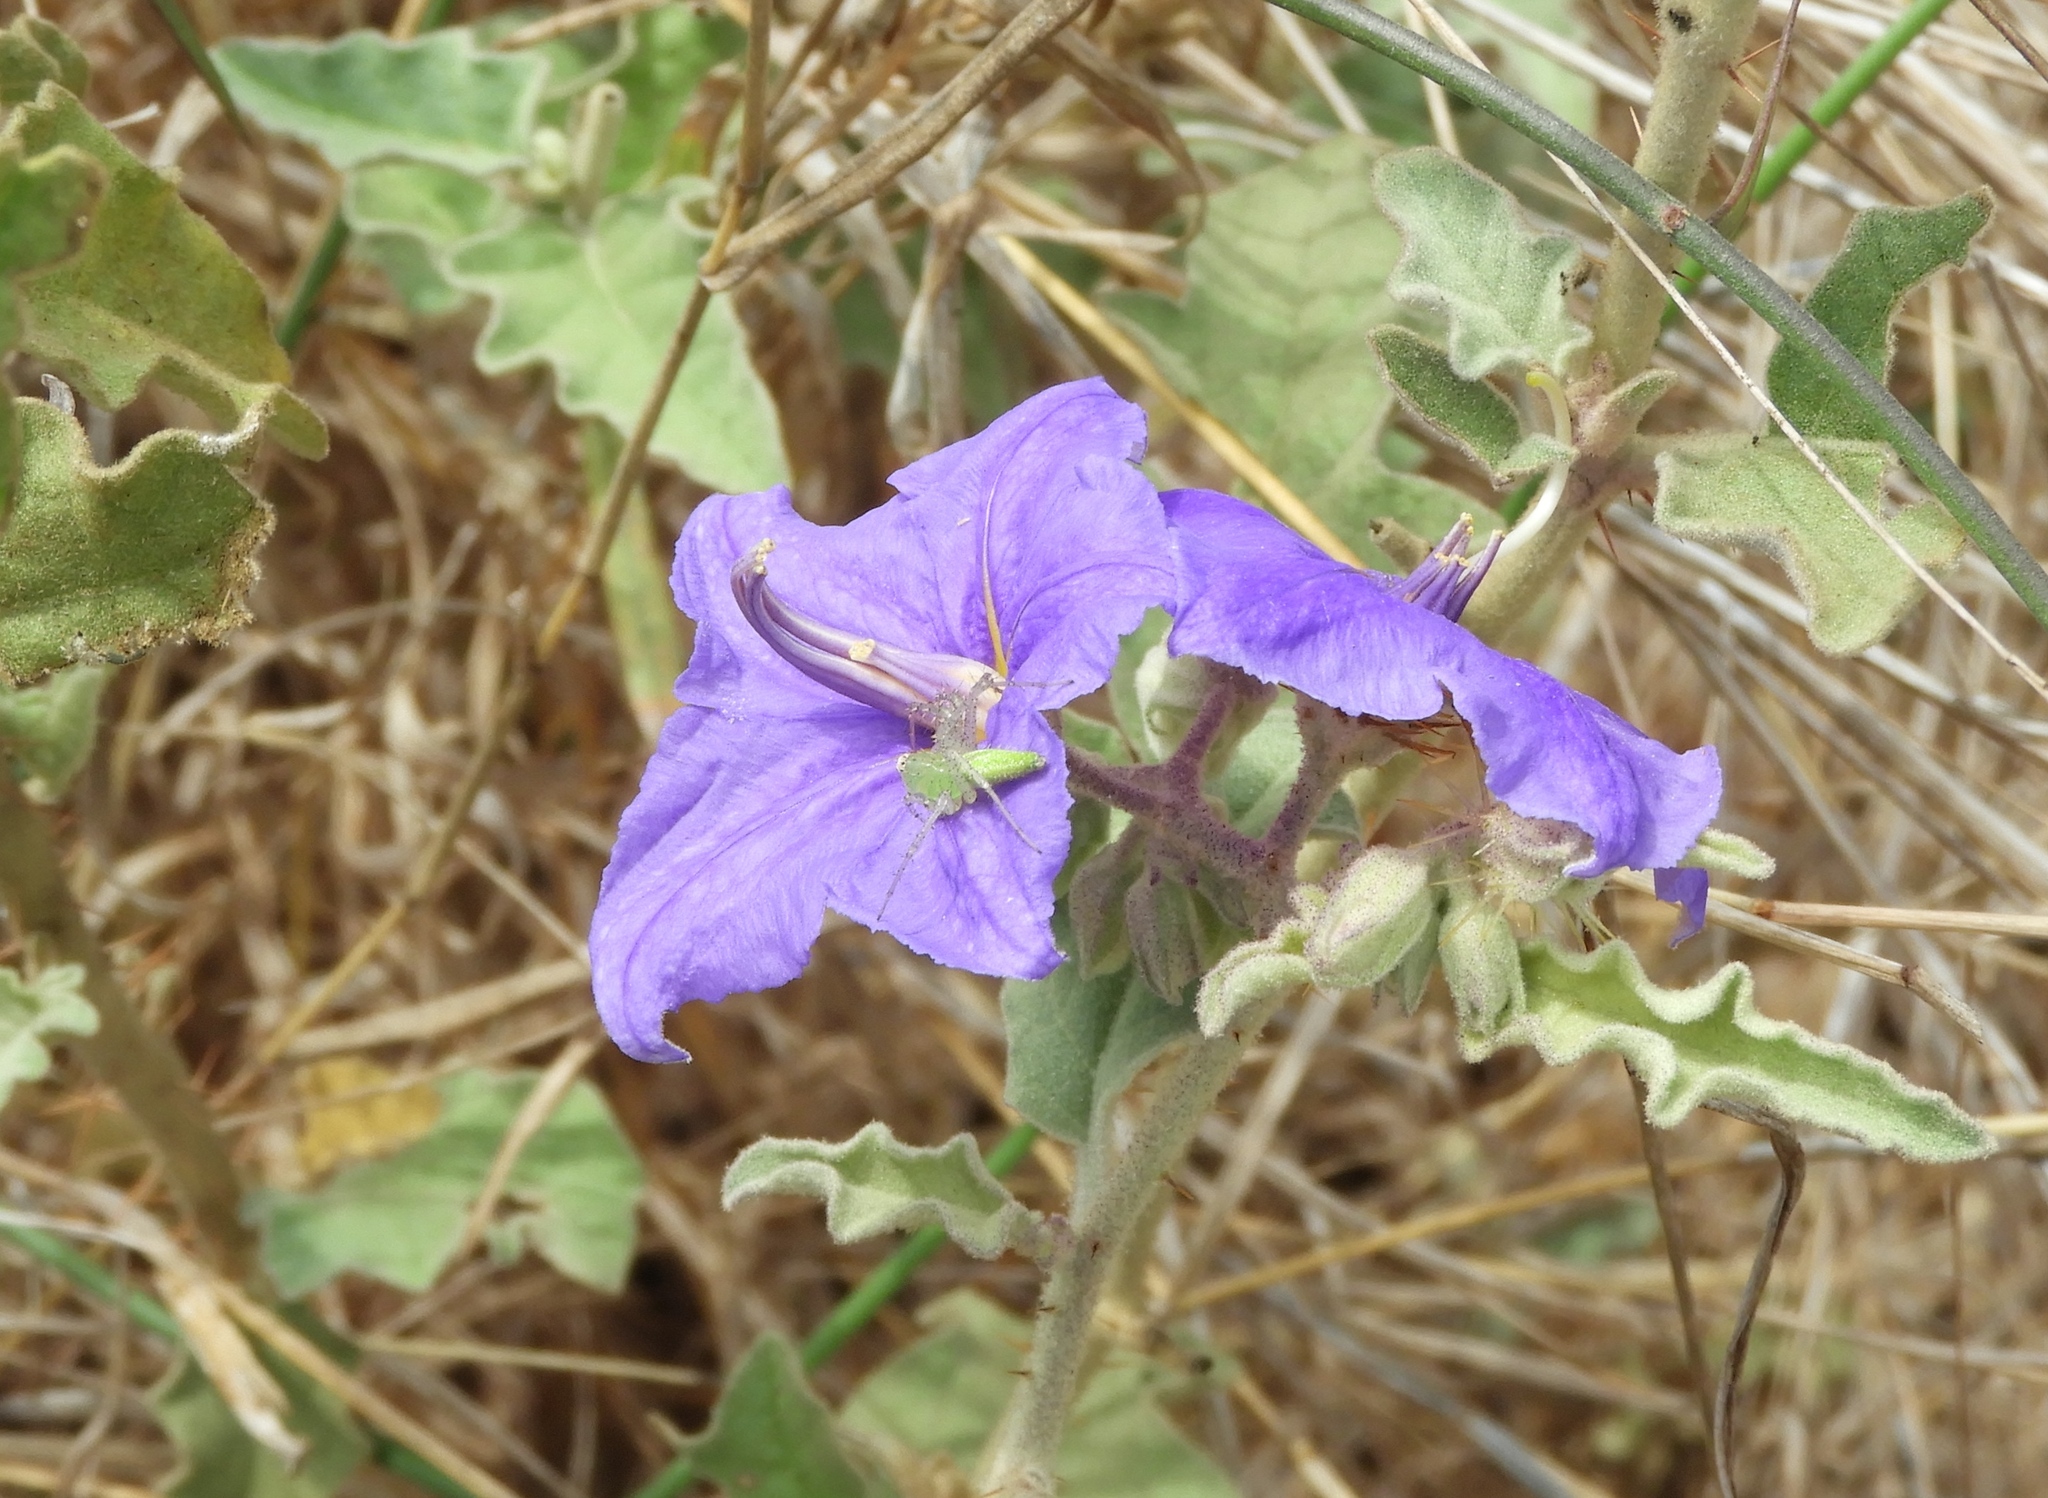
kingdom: Plantae
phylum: Tracheophyta
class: Magnoliopsida
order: Solanales
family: Solanaceae
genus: Solanum
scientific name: Solanum houstonii
